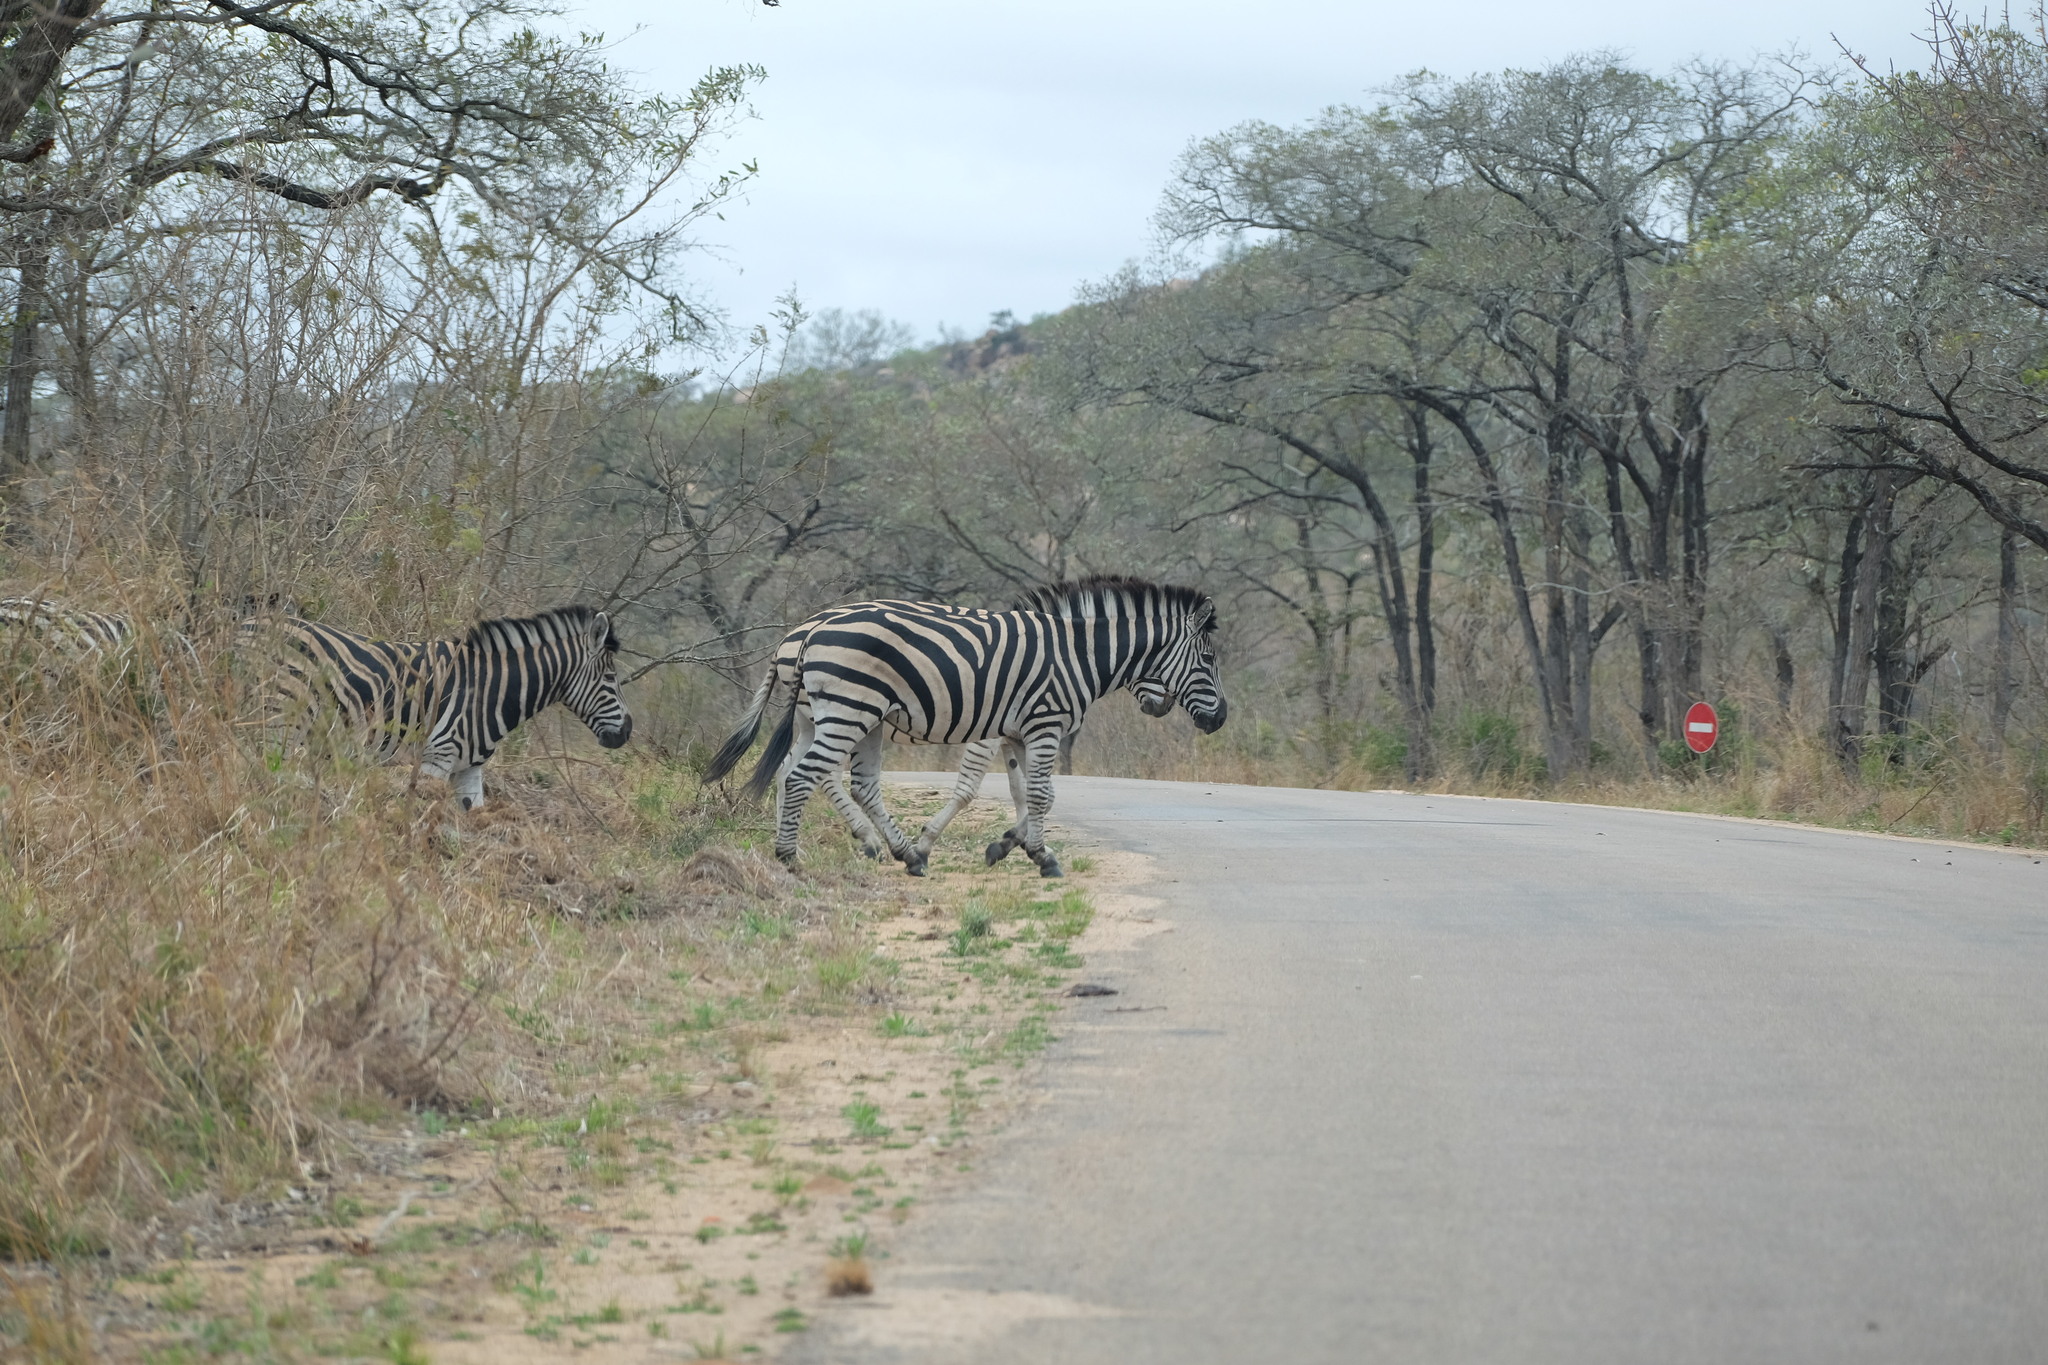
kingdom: Animalia
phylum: Chordata
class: Mammalia
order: Perissodactyla
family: Equidae
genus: Equus
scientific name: Equus quagga
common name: Plains zebra
